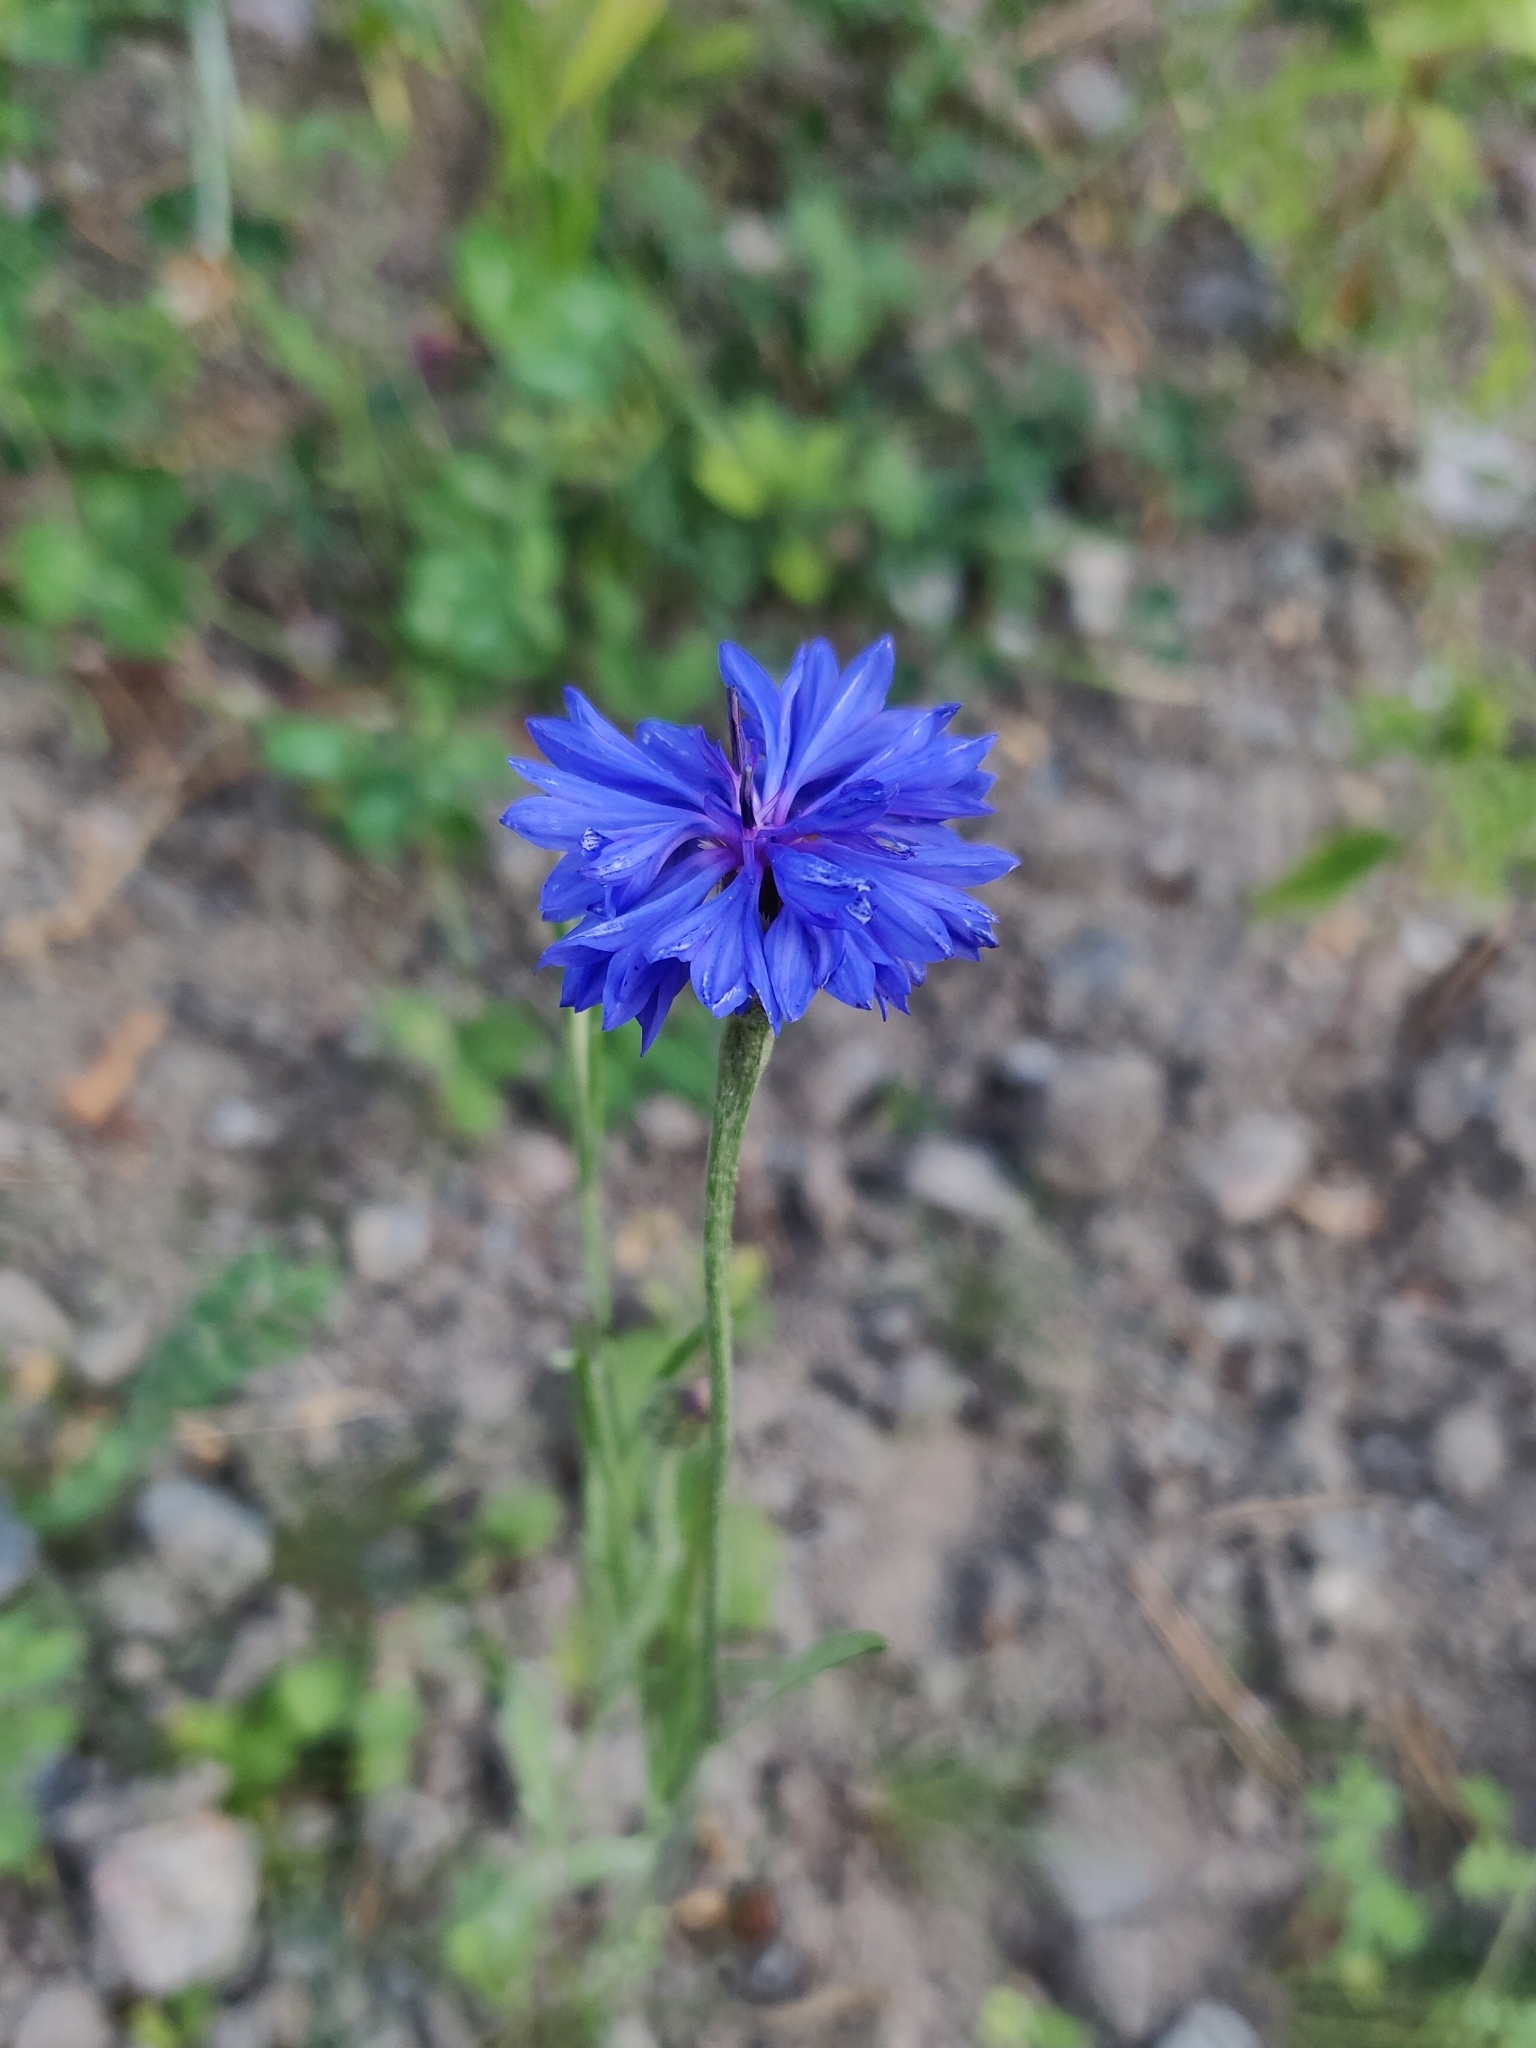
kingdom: Plantae
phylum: Tracheophyta
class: Magnoliopsida
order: Asterales
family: Asteraceae
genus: Centaurea
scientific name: Centaurea cyanus
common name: Cornflower
